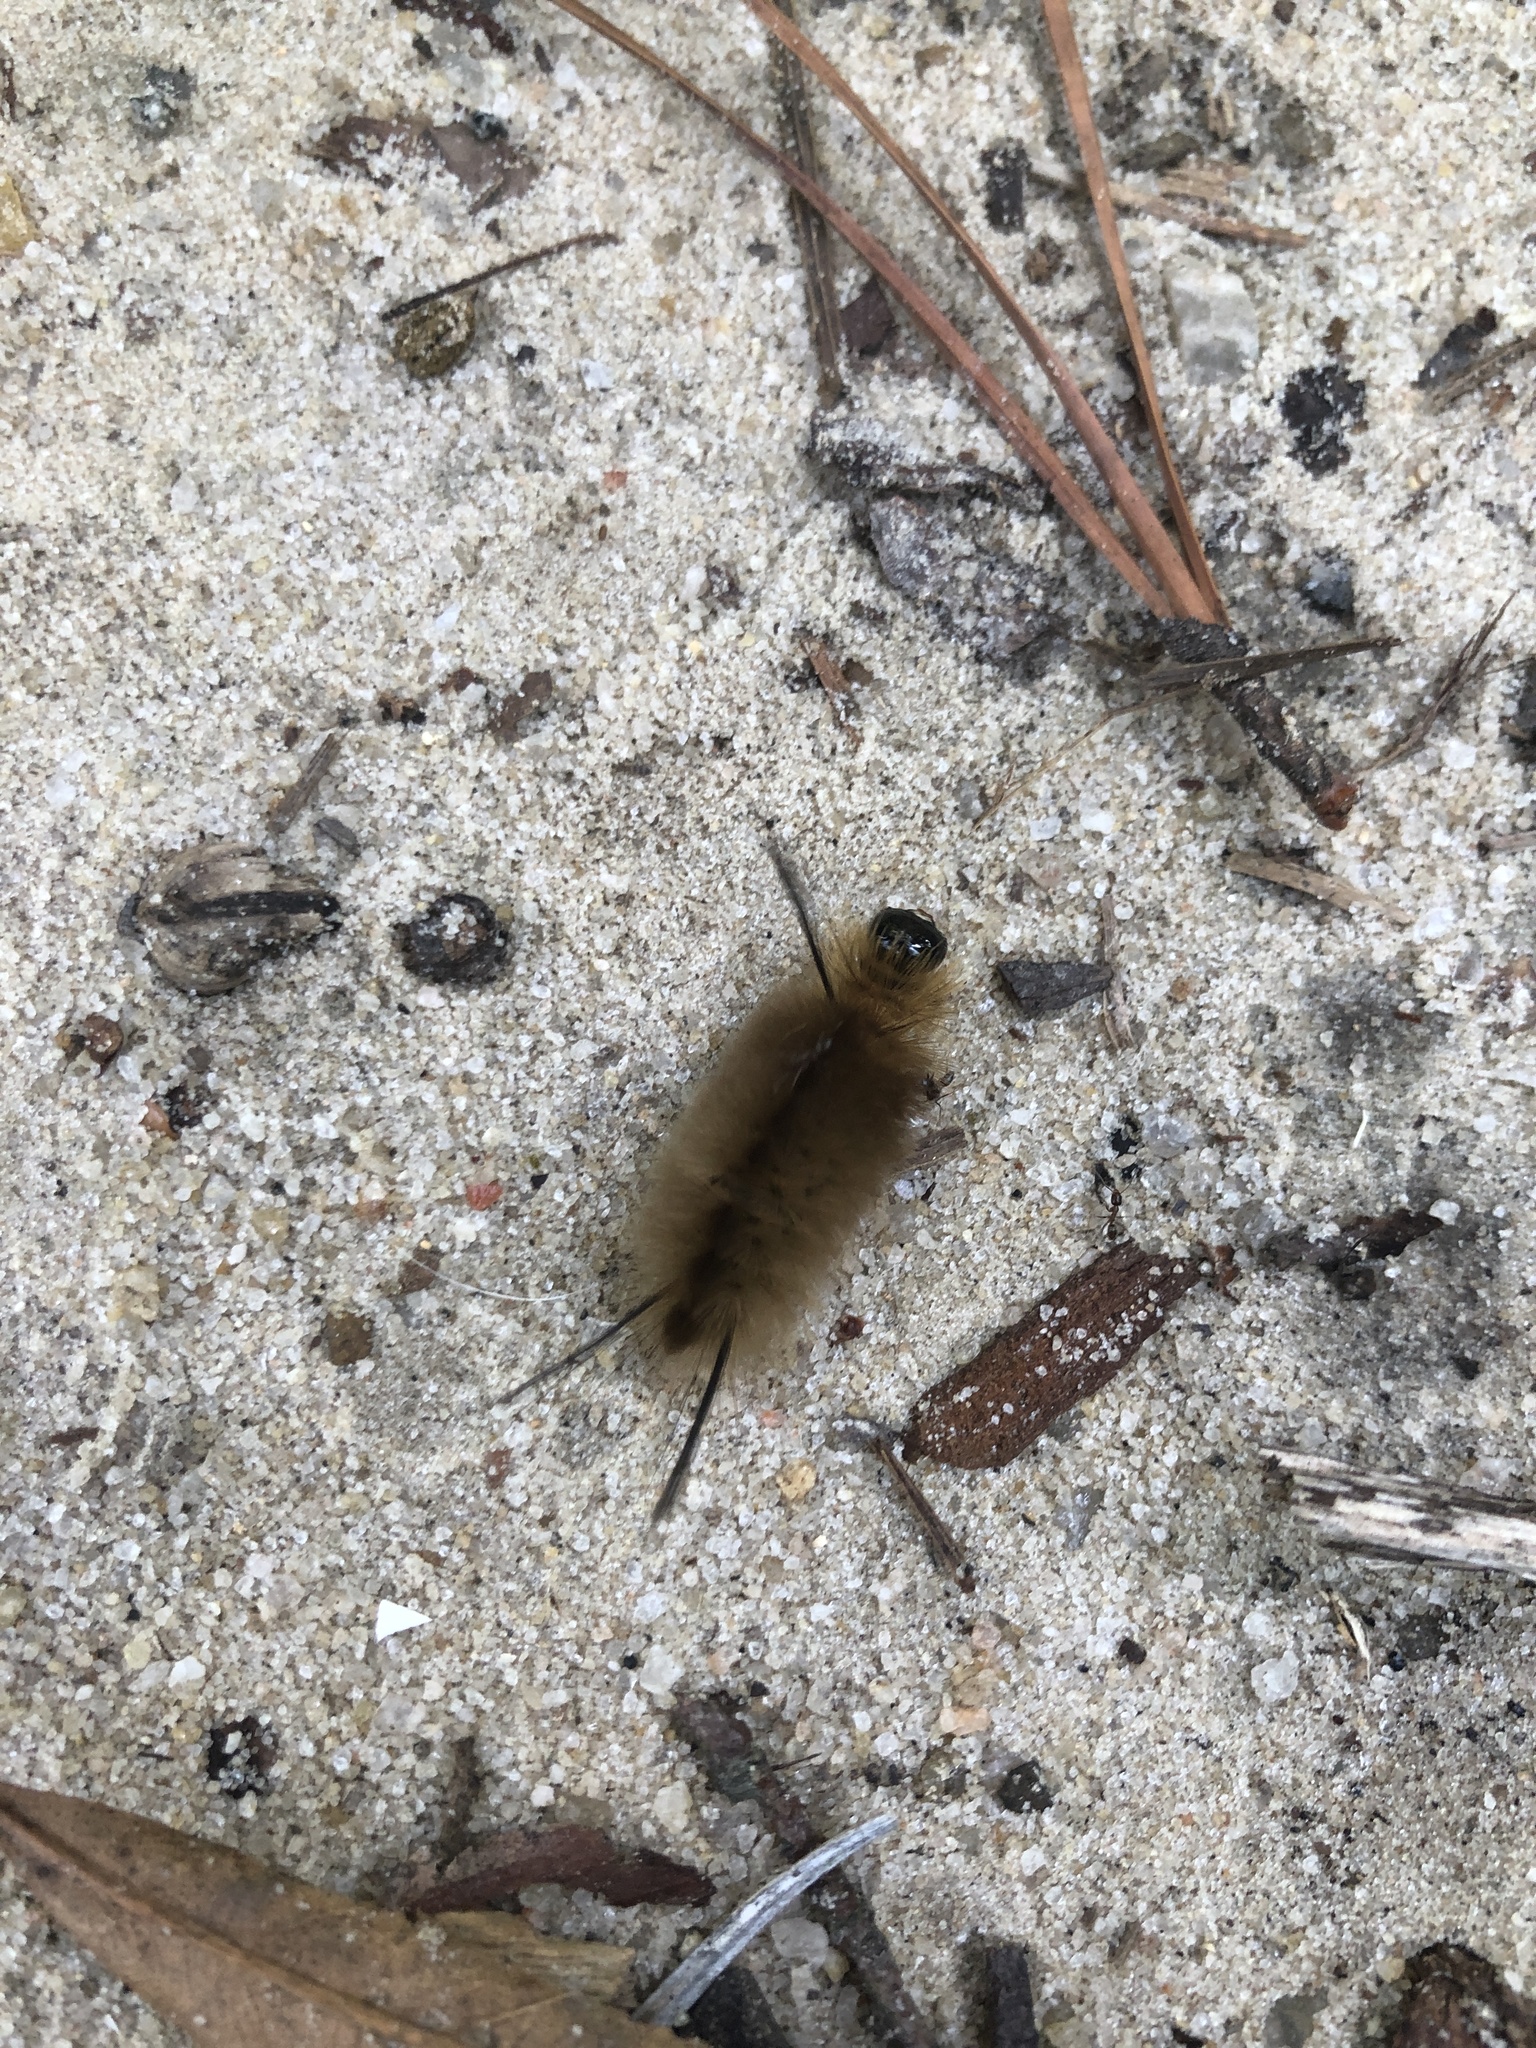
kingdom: Animalia
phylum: Arthropoda
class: Insecta
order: Lepidoptera
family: Erebidae
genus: Halysidota
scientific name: Halysidota tessellaris
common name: Banded tussock moth
